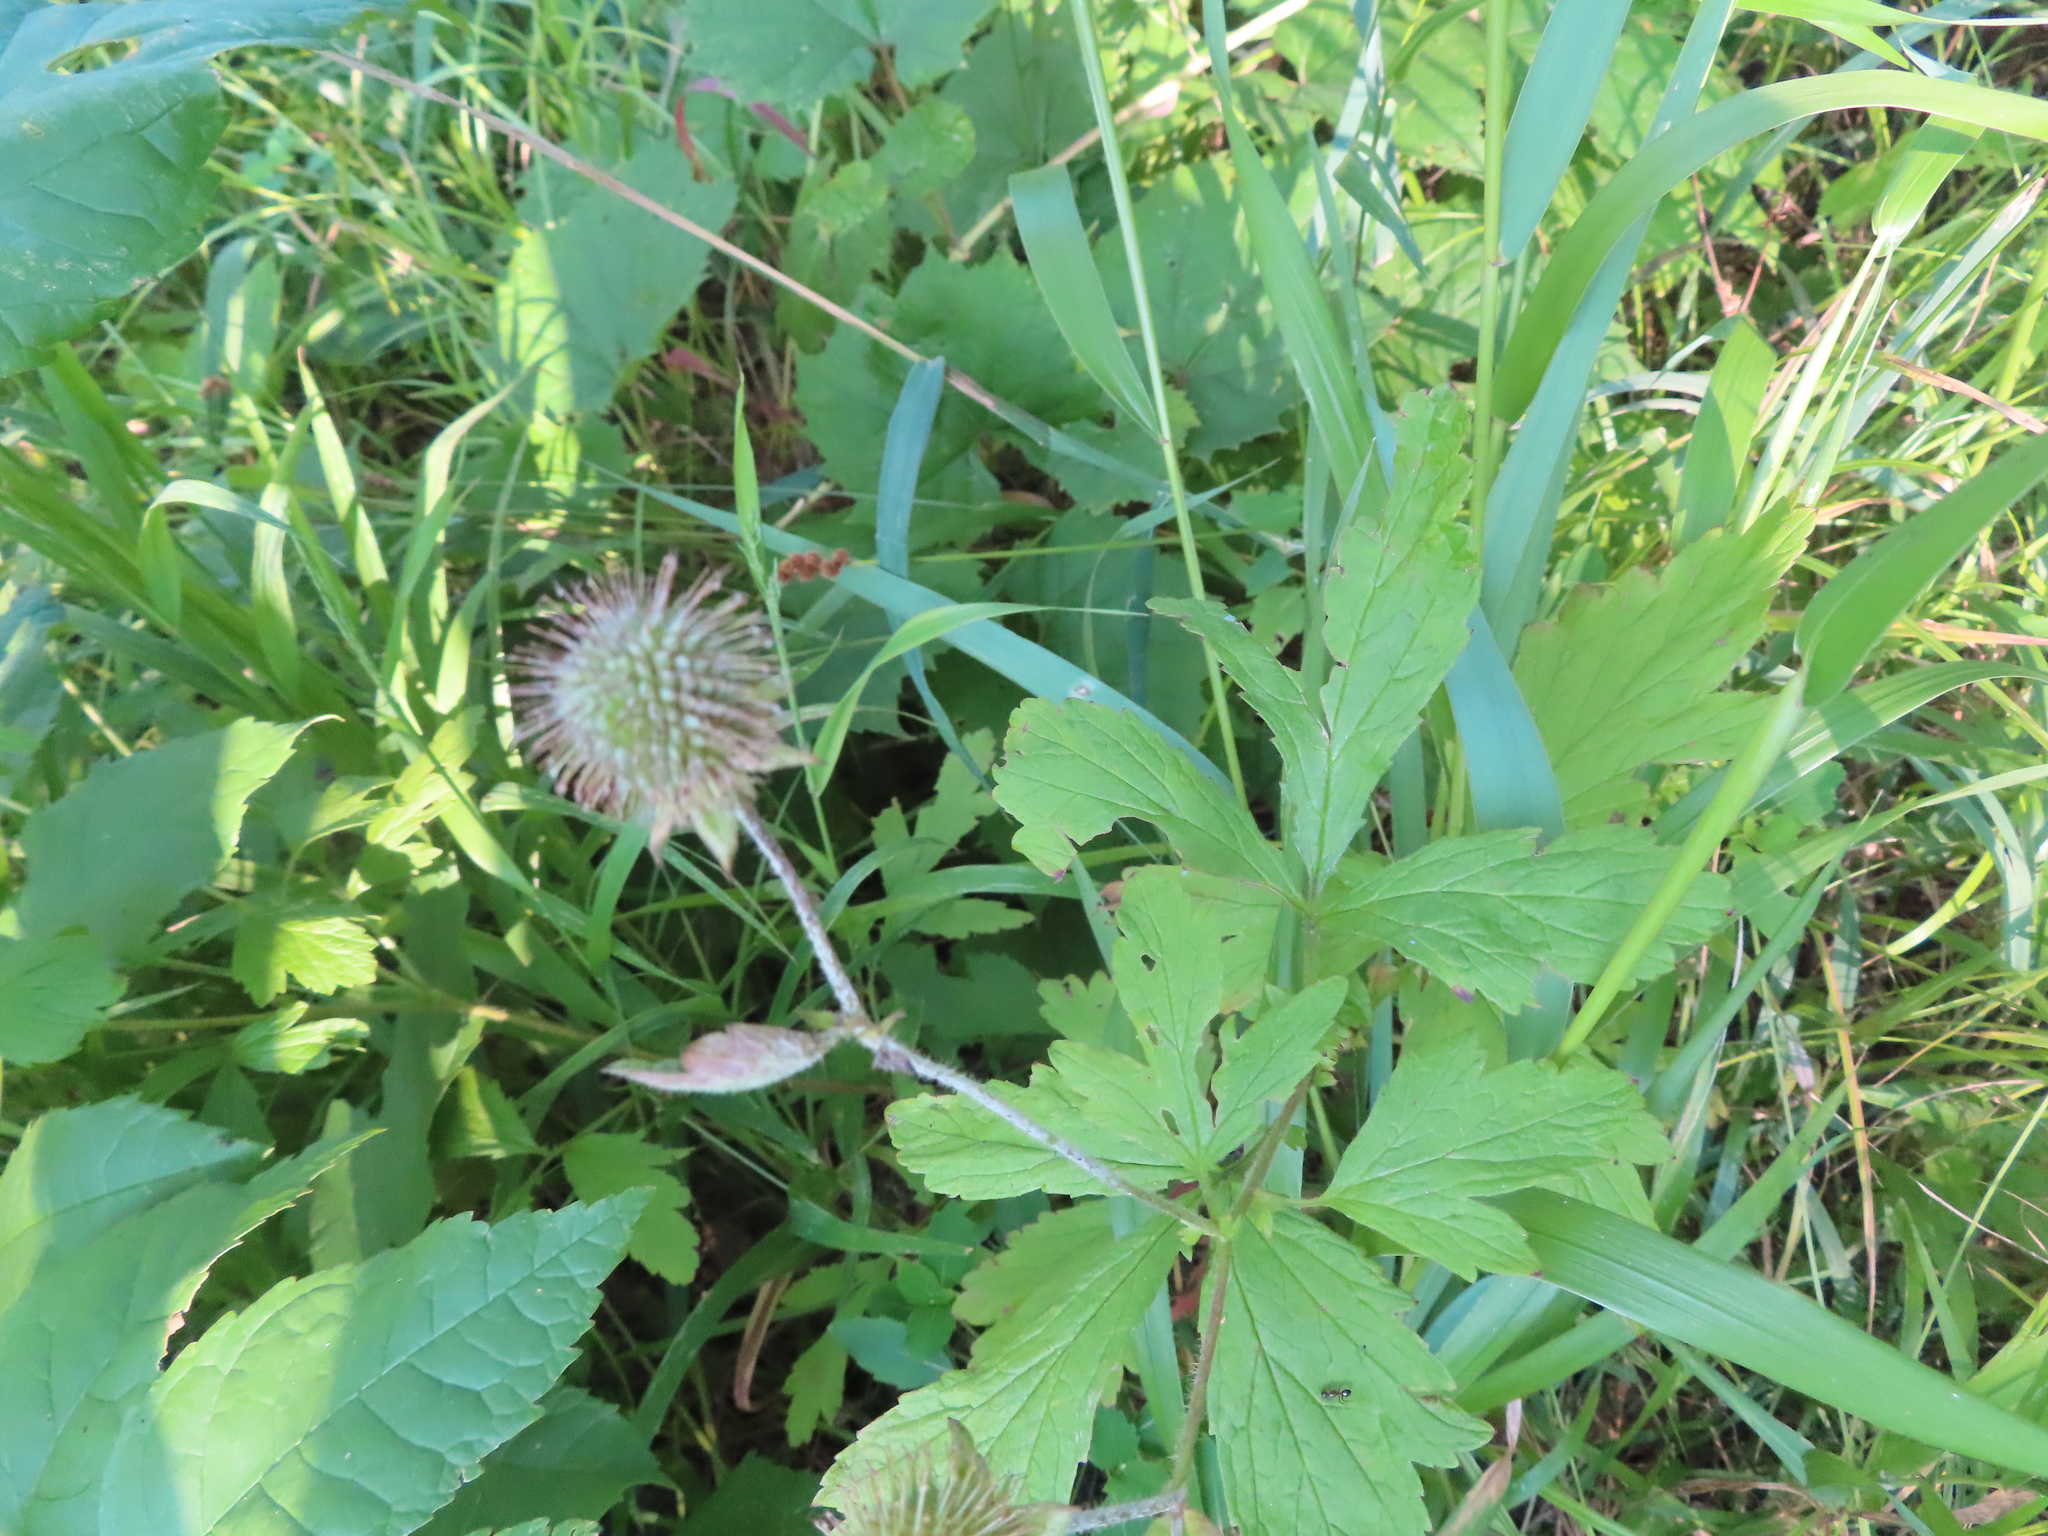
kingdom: Plantae
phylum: Tracheophyta
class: Magnoliopsida
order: Rosales
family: Rosaceae
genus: Geum
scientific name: Geum laciniatum
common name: Rough avens
